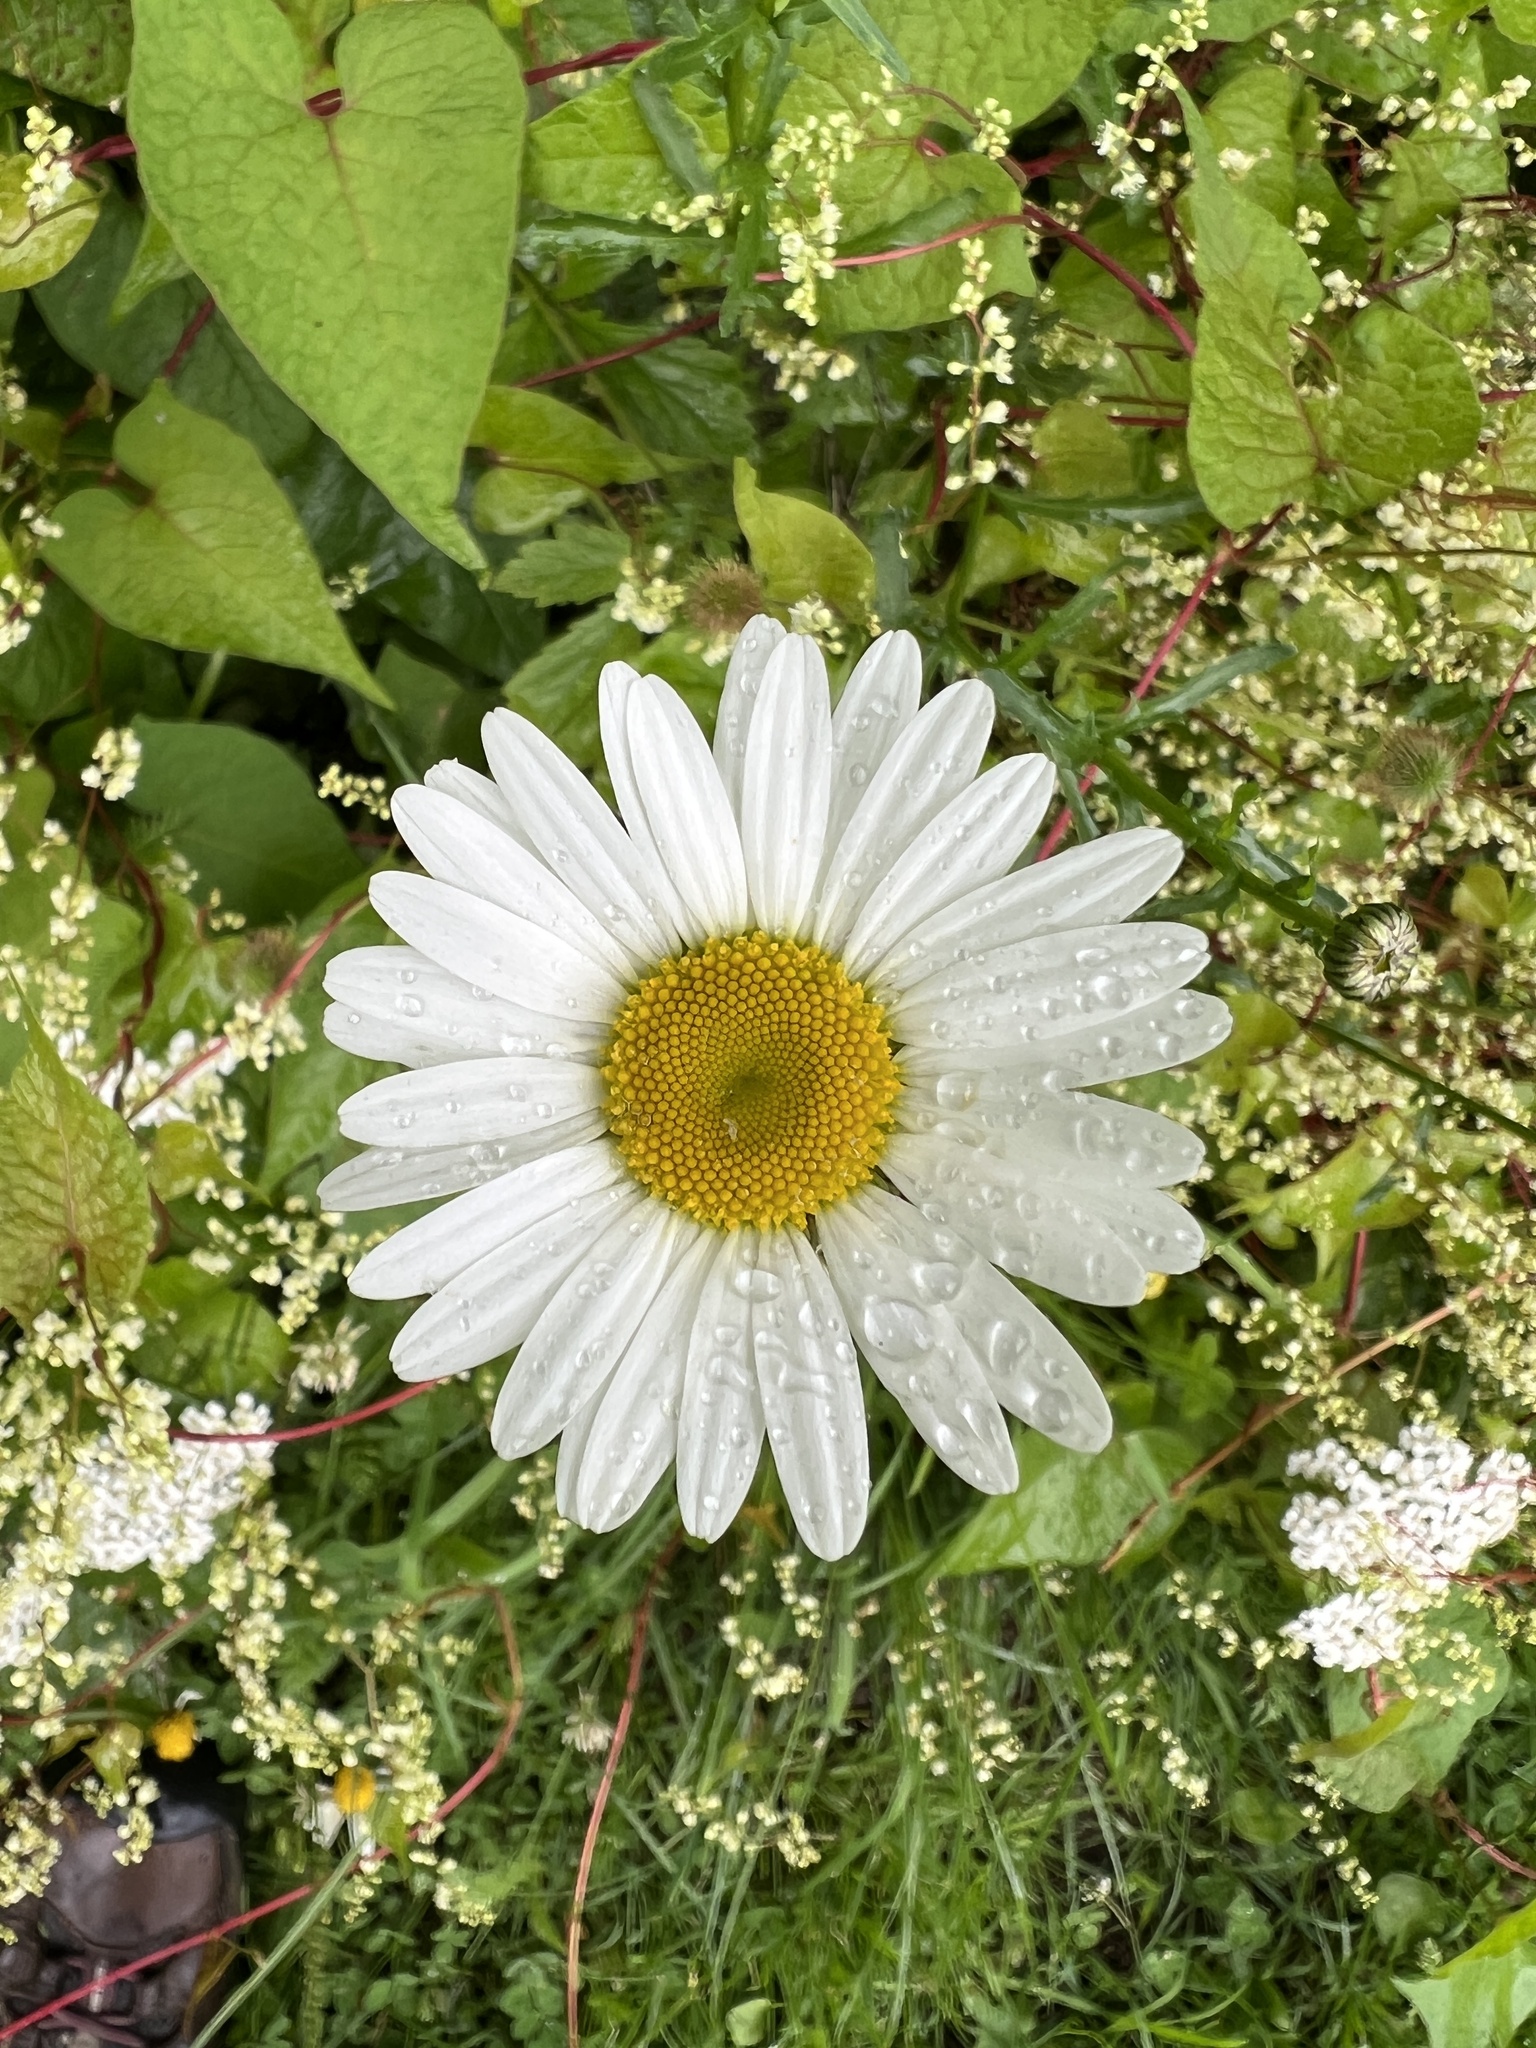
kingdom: Plantae
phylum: Tracheophyta
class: Magnoliopsida
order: Asterales
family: Asteraceae
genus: Leucanthemum
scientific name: Leucanthemum vulgare
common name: Oxeye daisy
